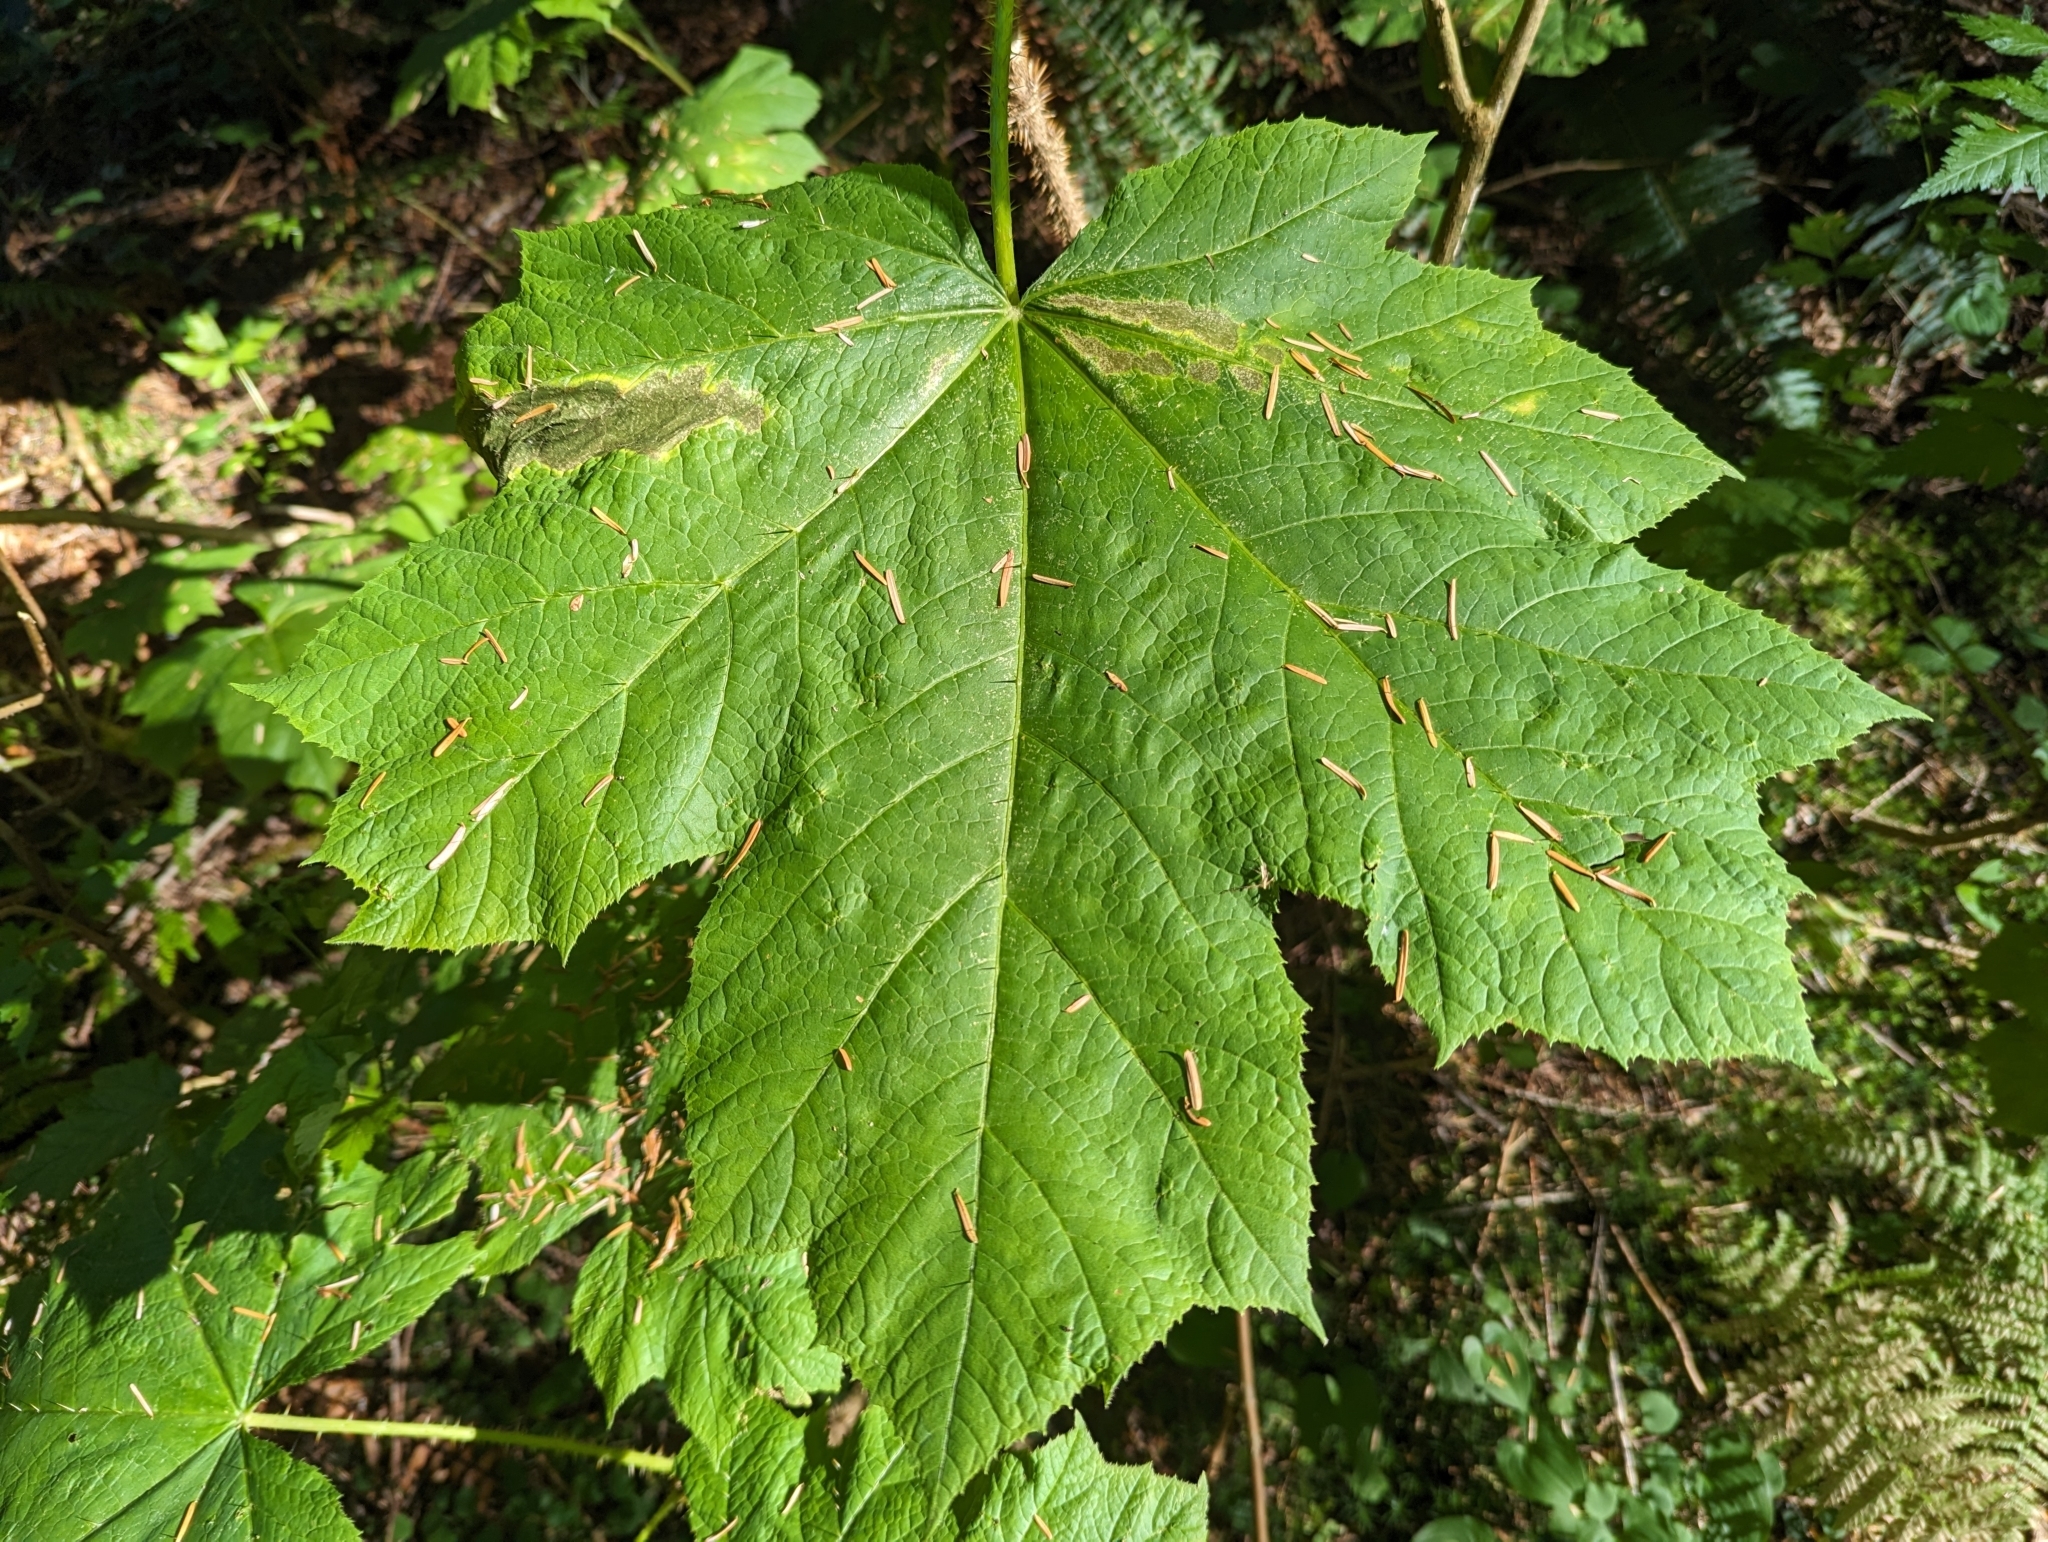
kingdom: Plantae
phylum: Tracheophyta
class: Magnoliopsida
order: Apiales
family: Araliaceae
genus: Oplopanax
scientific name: Oplopanax horridus
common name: Devil's walking-stick
